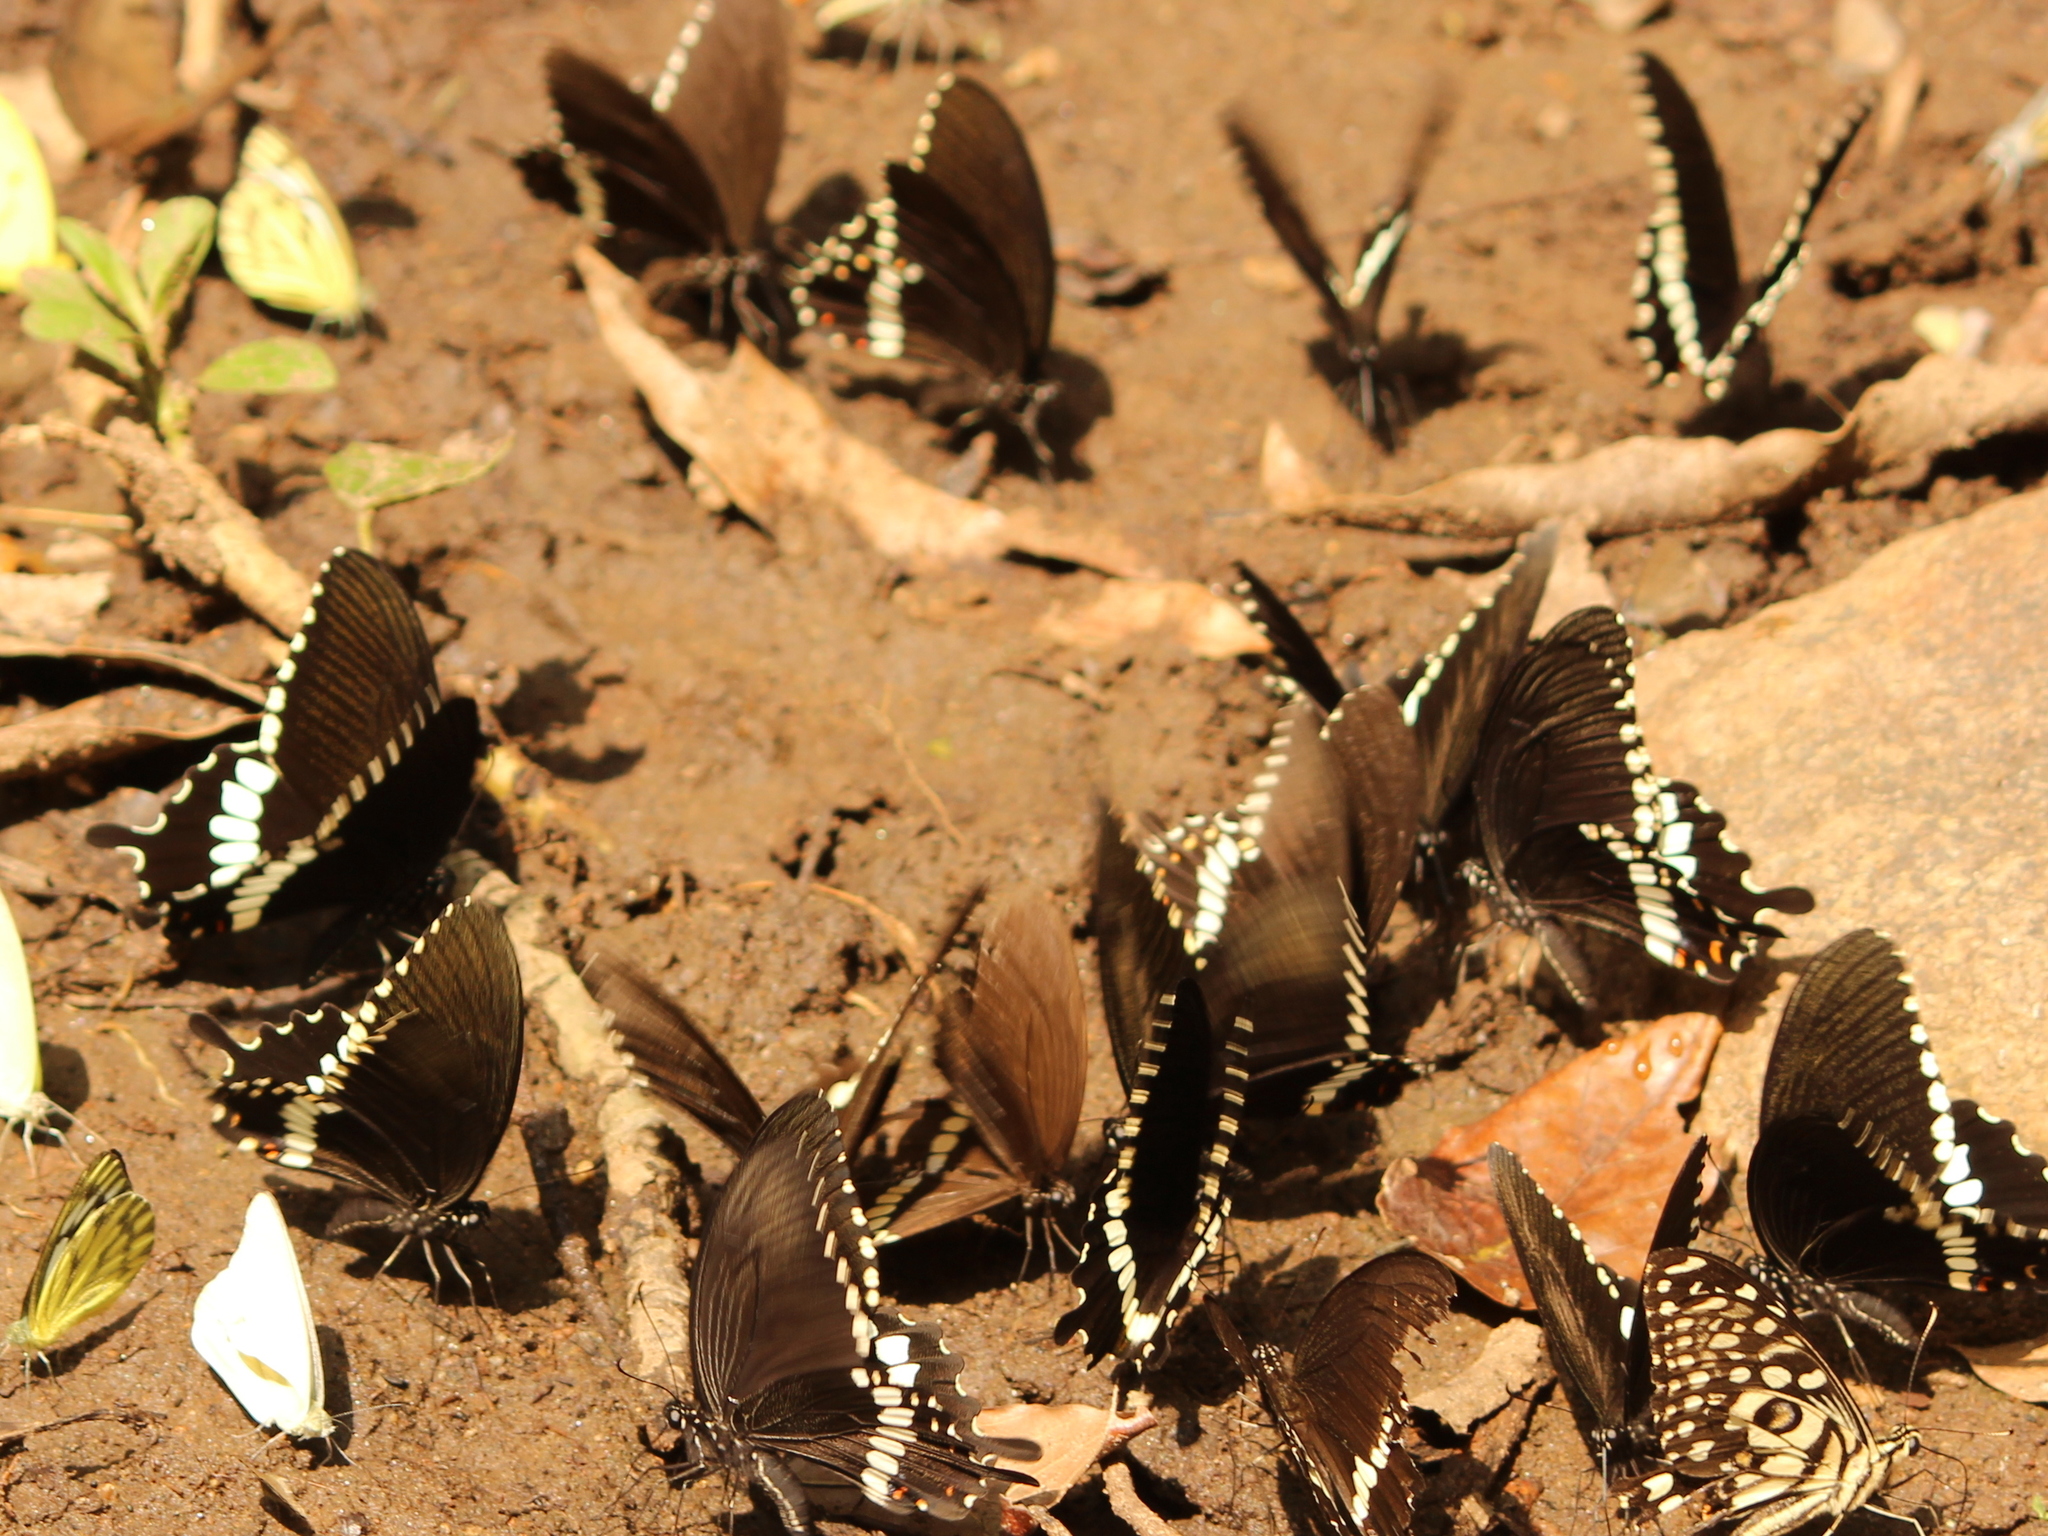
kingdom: Animalia
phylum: Arthropoda
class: Insecta
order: Lepidoptera
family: Papilionidae
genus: Papilio
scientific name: Papilio polytes
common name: Common mormon
